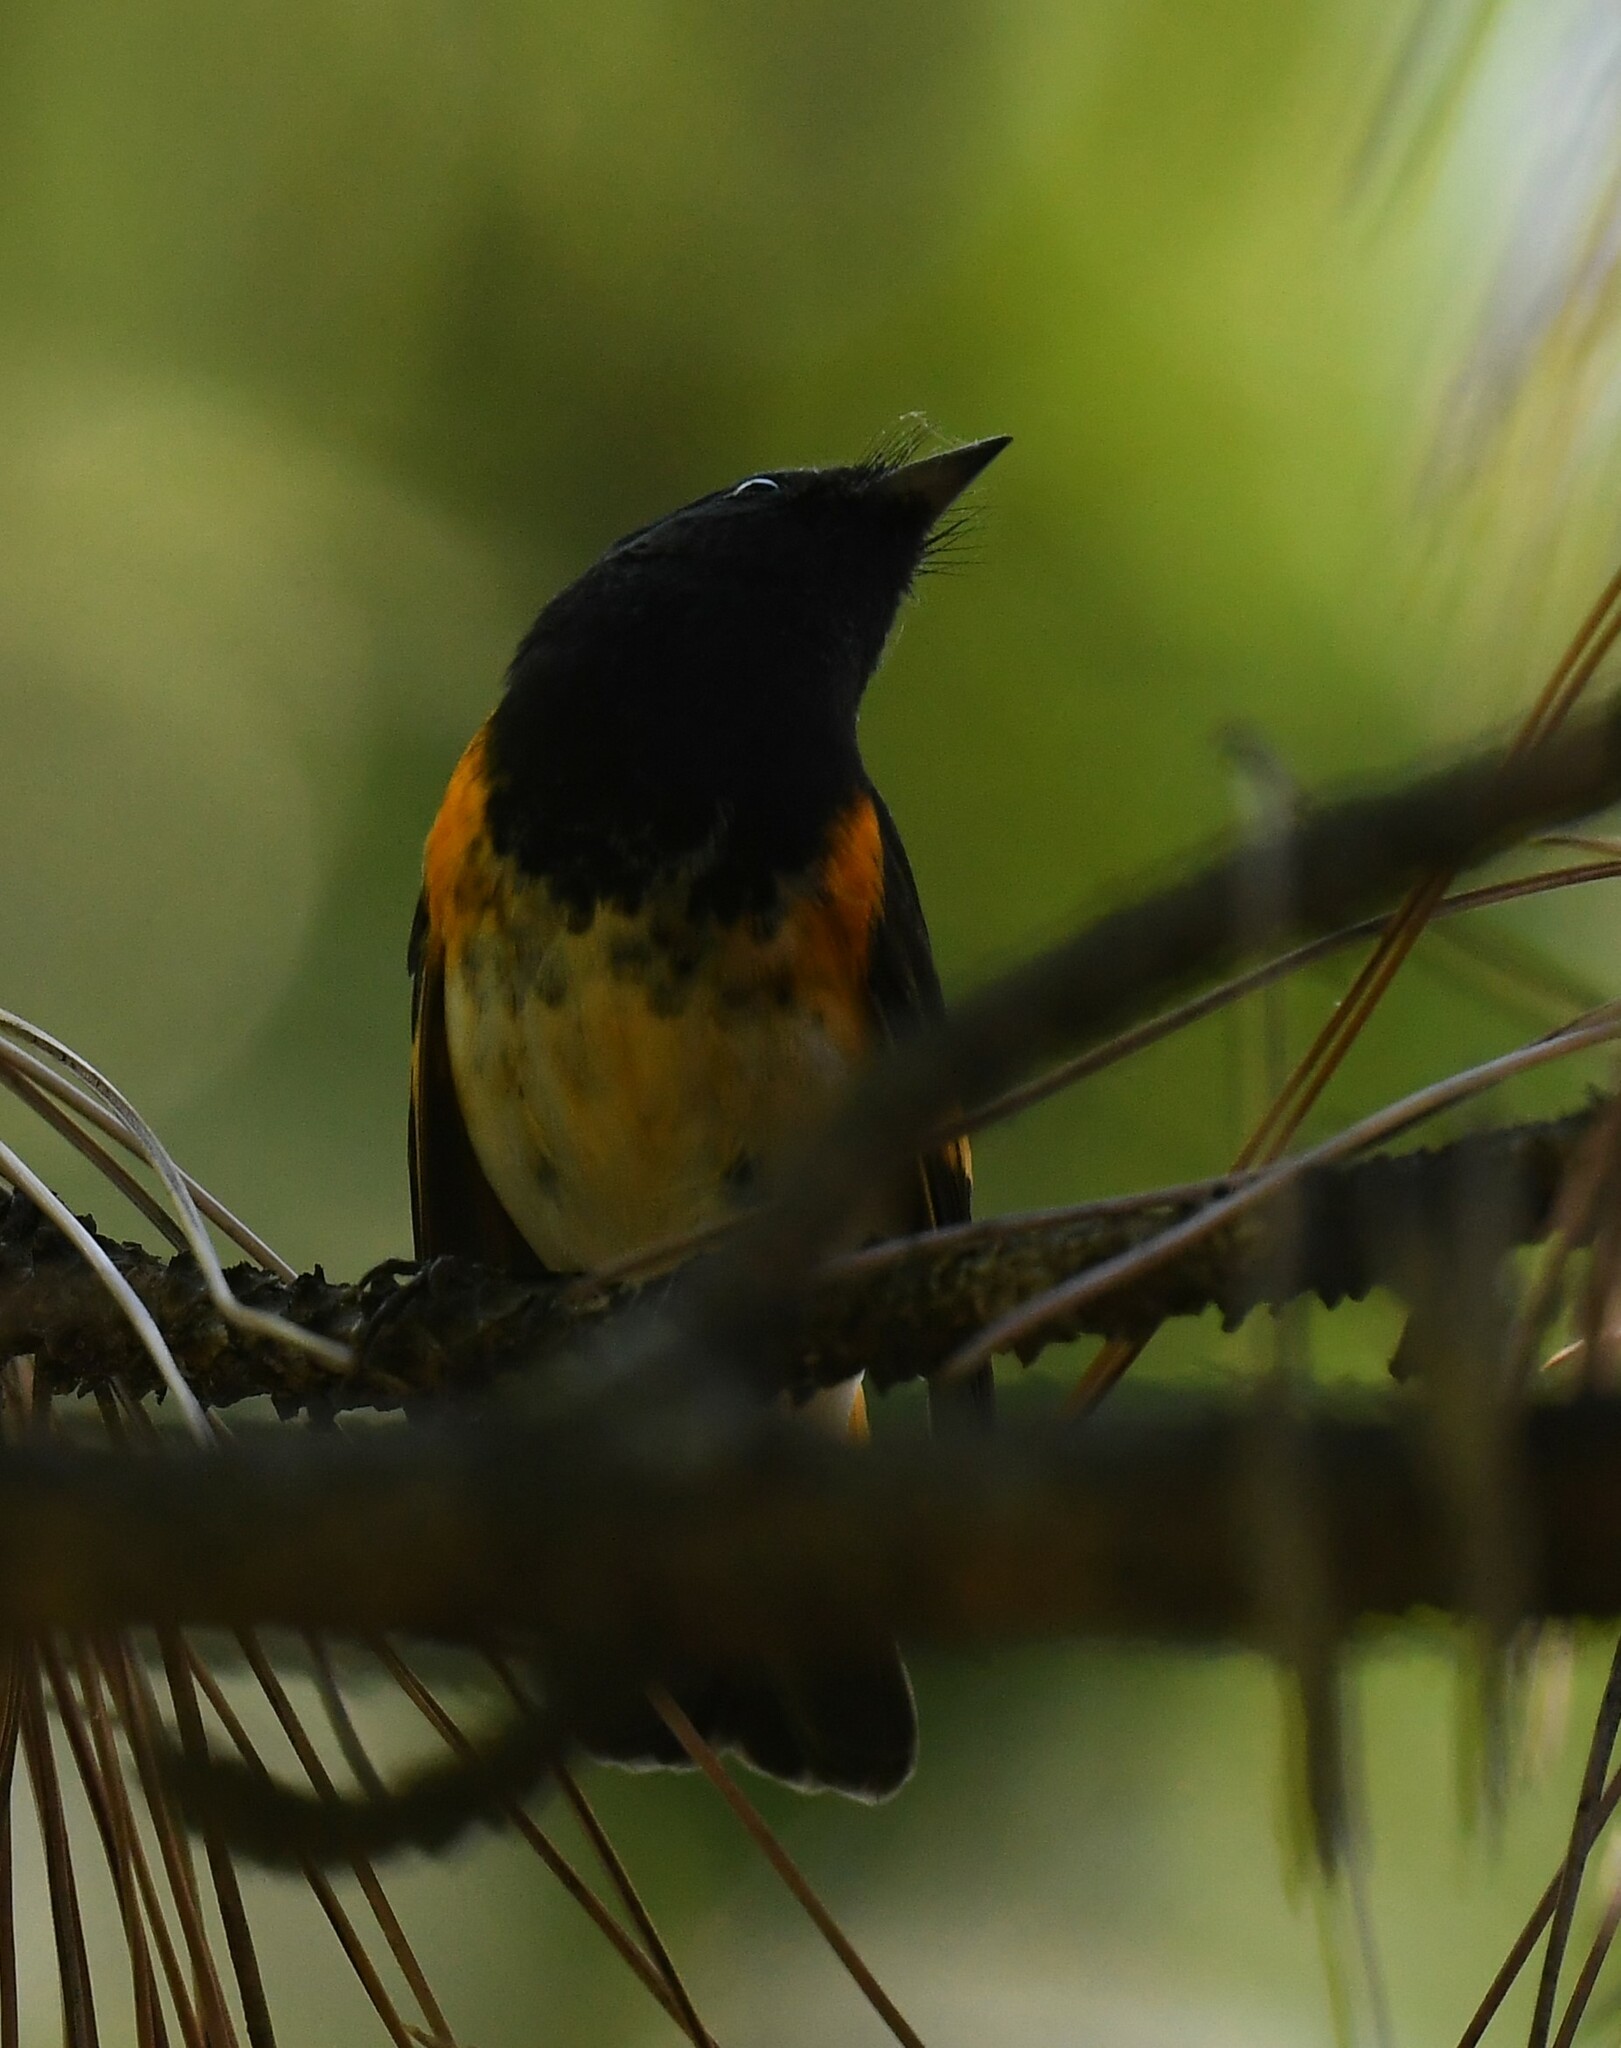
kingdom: Animalia
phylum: Chordata
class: Aves
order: Passeriformes
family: Parulidae
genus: Setophaga
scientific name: Setophaga ruticilla
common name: American redstart
